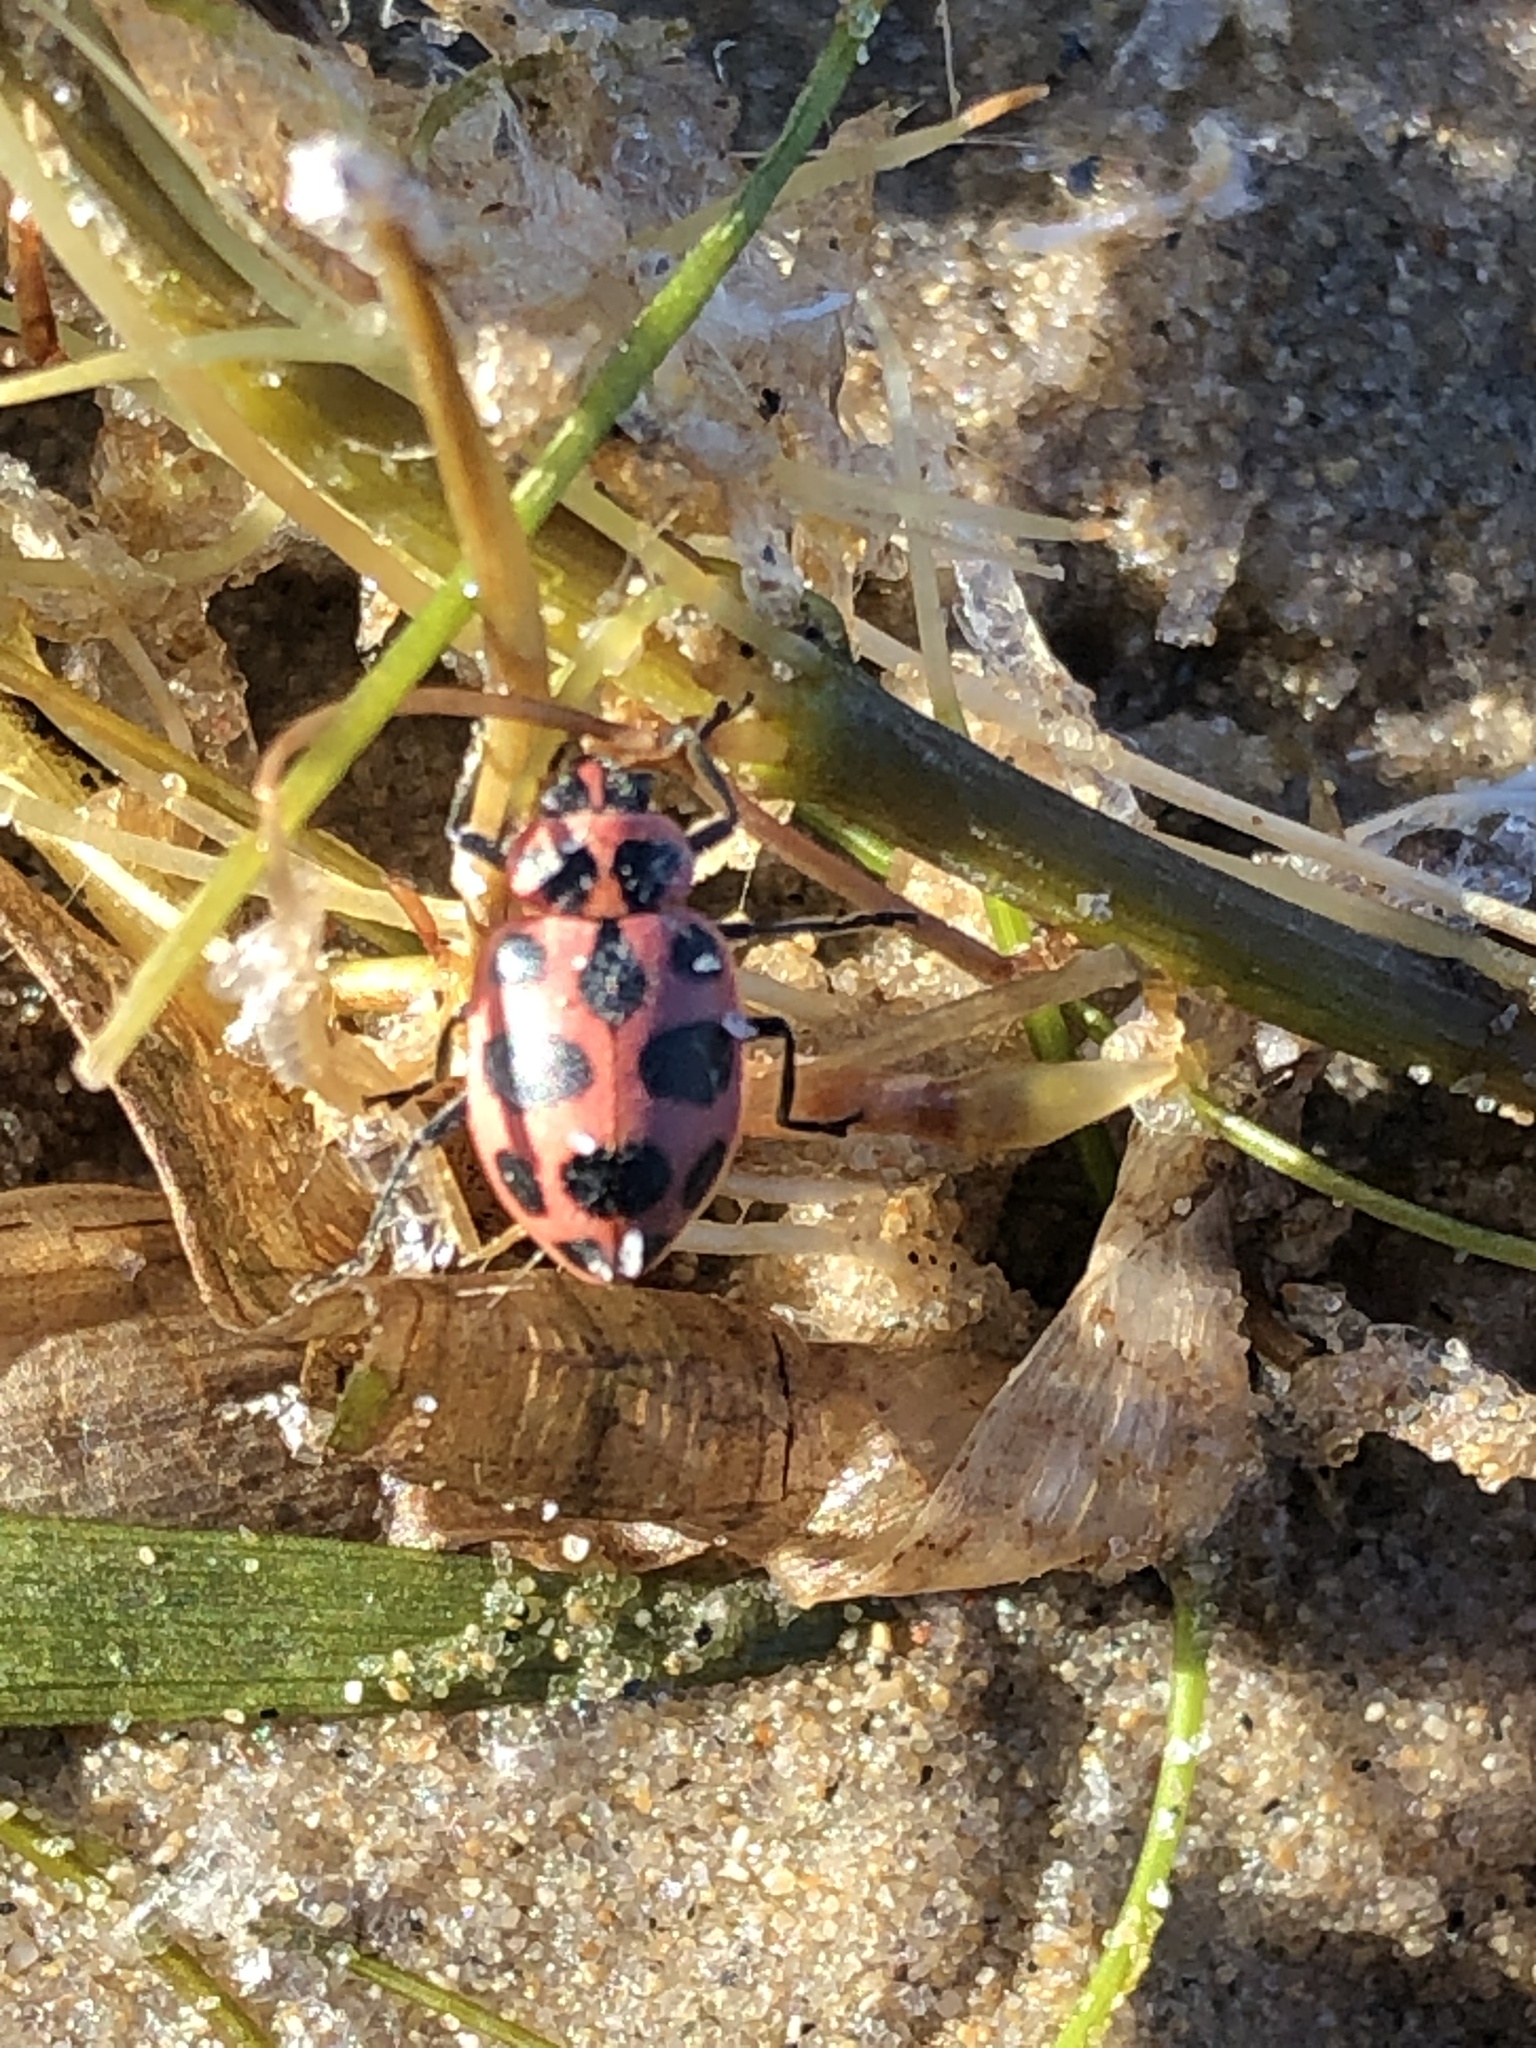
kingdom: Animalia
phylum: Arthropoda
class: Insecta
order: Coleoptera
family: Coccinellidae
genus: Coleomegilla
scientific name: Coleomegilla maculata
